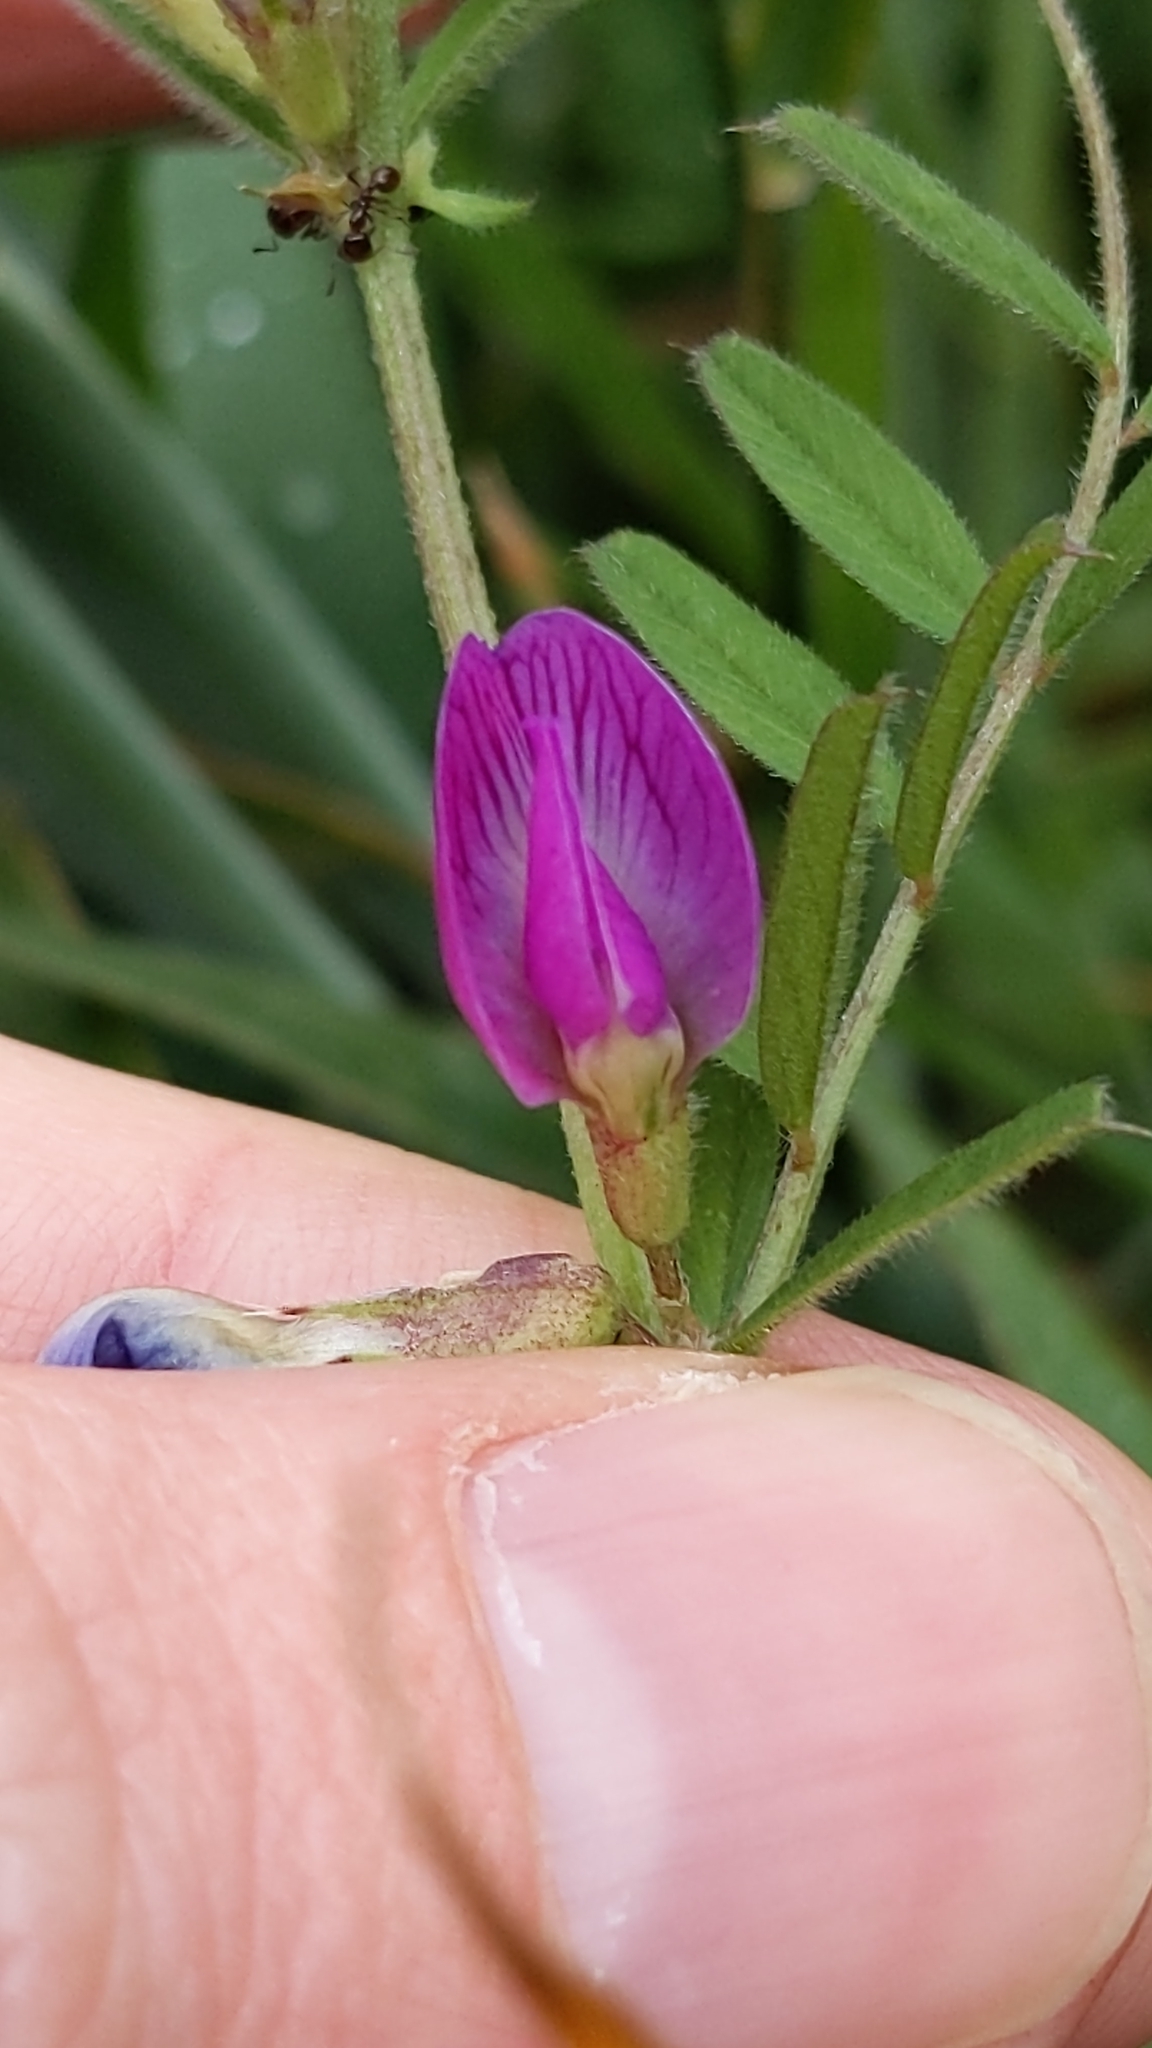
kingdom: Plantae
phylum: Tracheophyta
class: Magnoliopsida
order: Fabales
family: Fabaceae
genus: Vicia
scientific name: Vicia sativa
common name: Garden vetch
